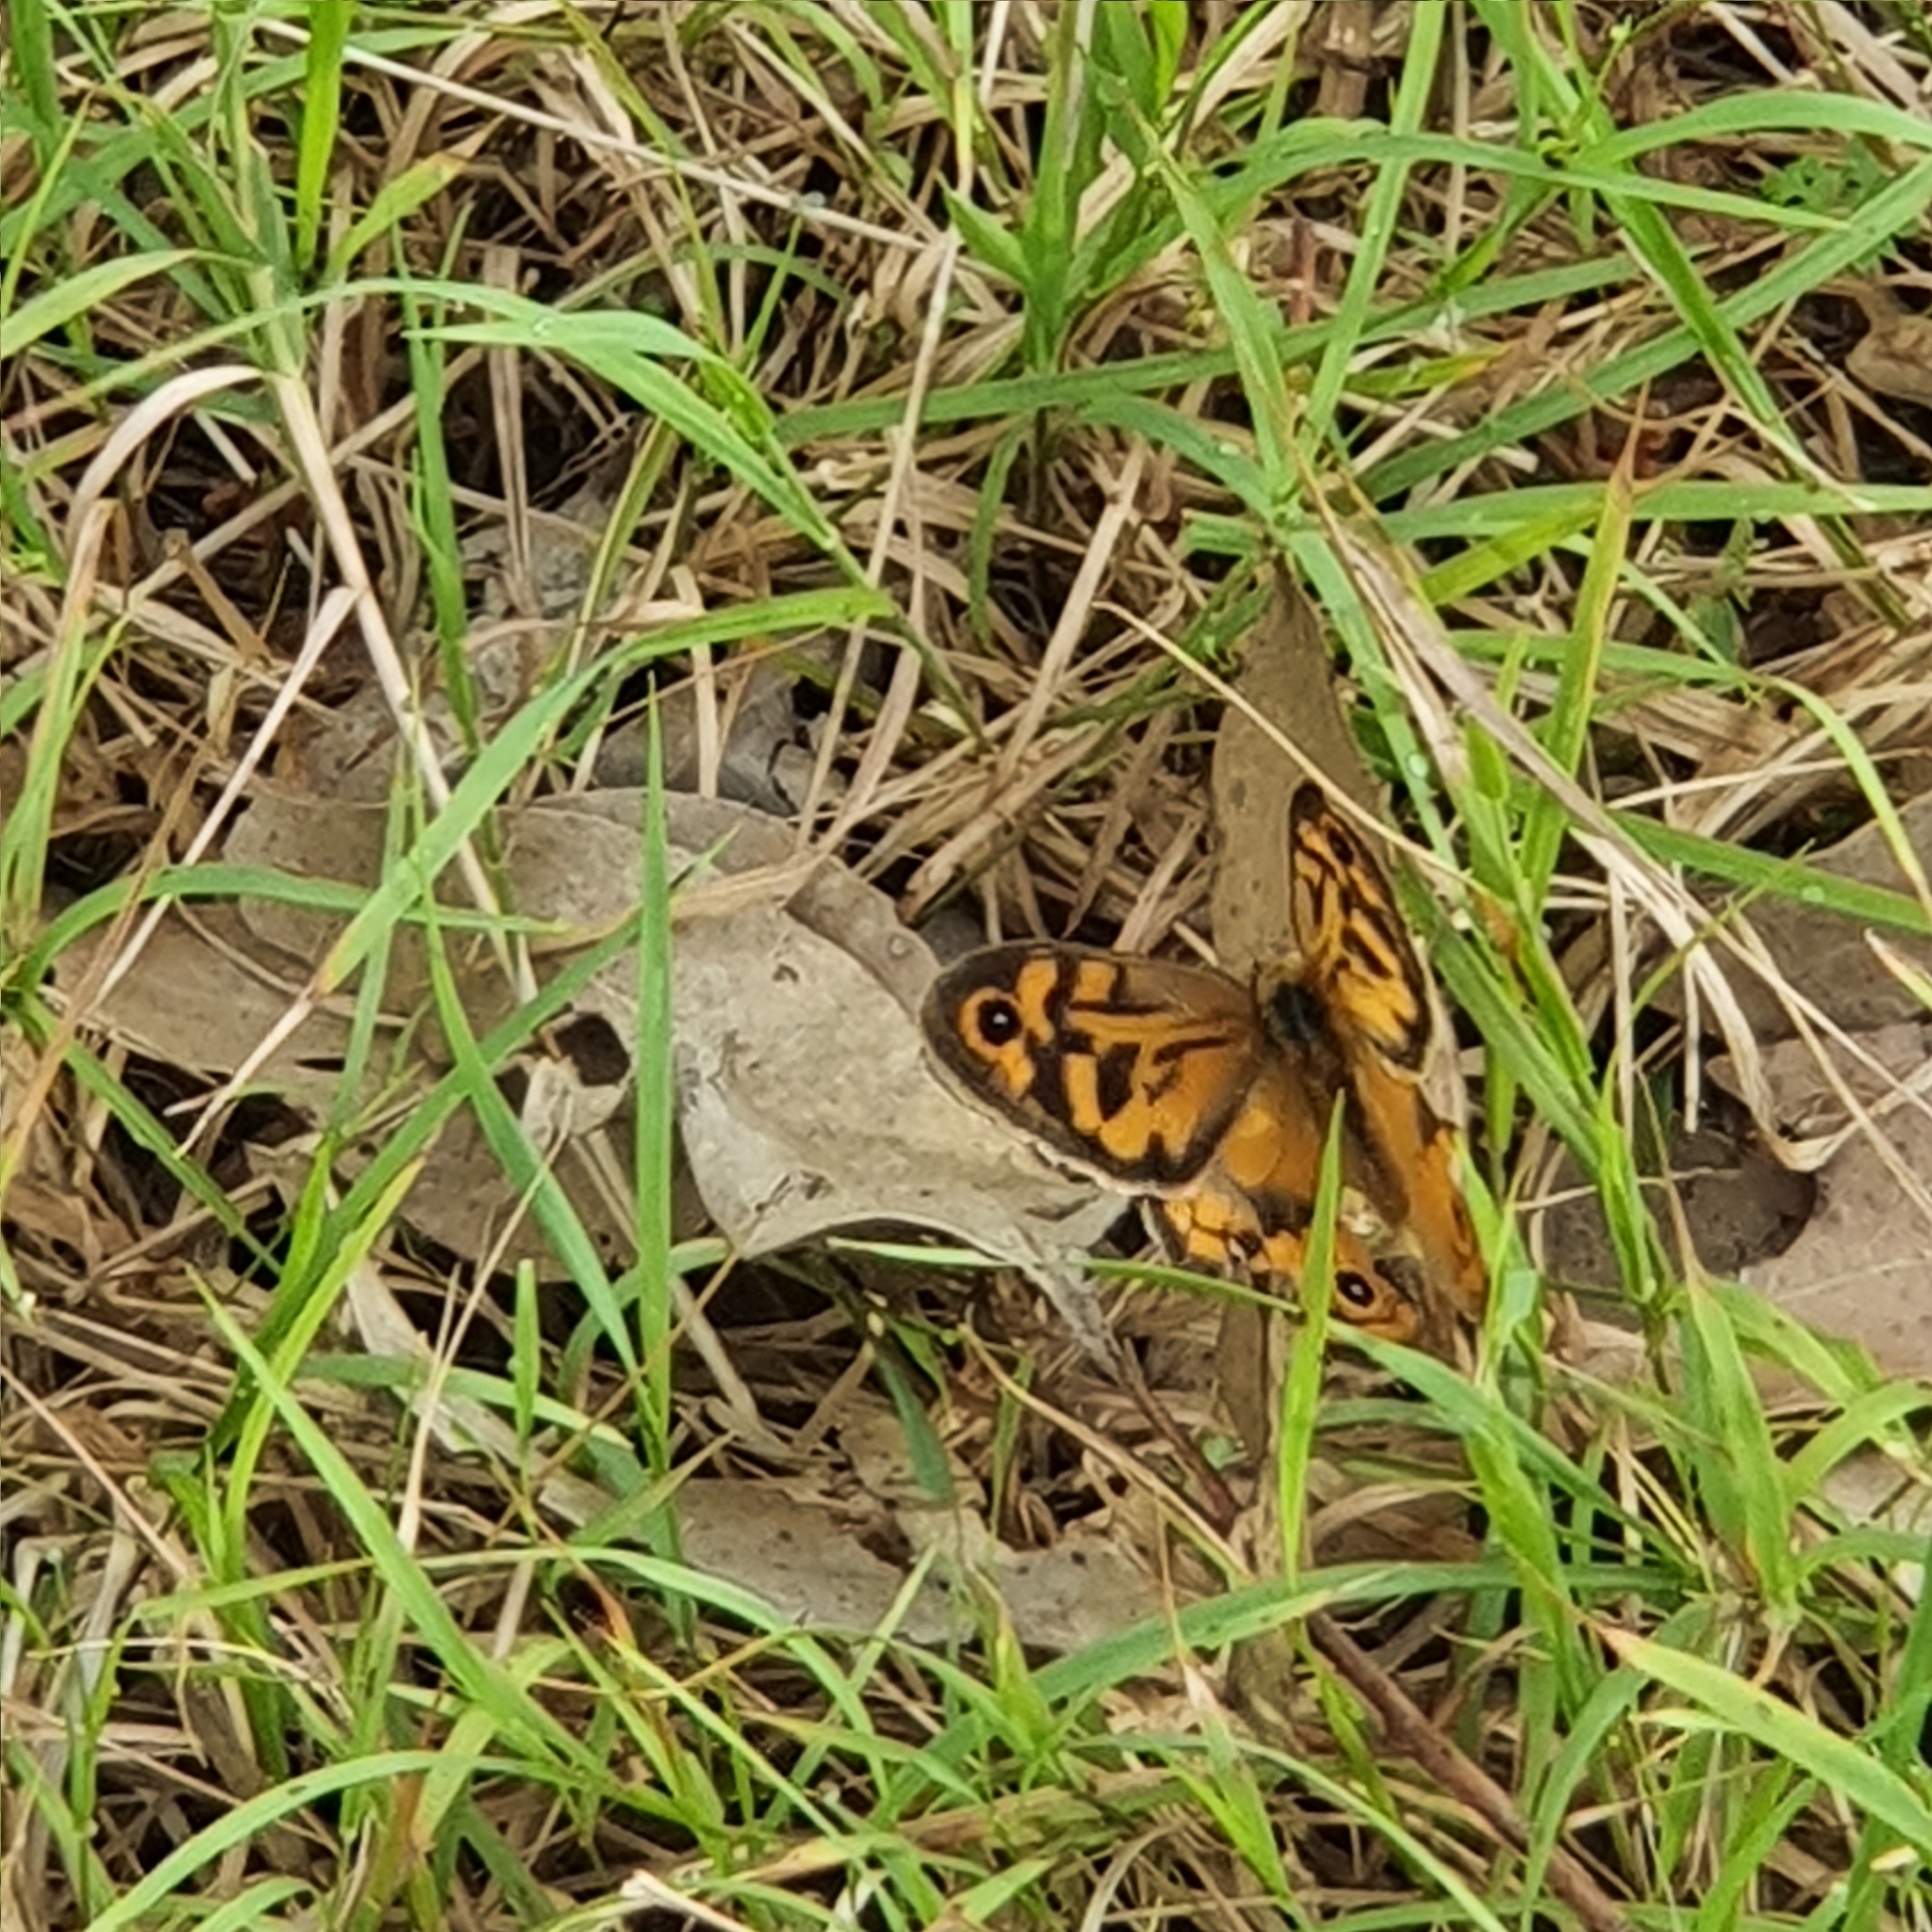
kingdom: Animalia
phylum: Arthropoda
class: Insecta
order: Lepidoptera
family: Nymphalidae
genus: Heteronympha
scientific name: Heteronympha merope
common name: Common brown
